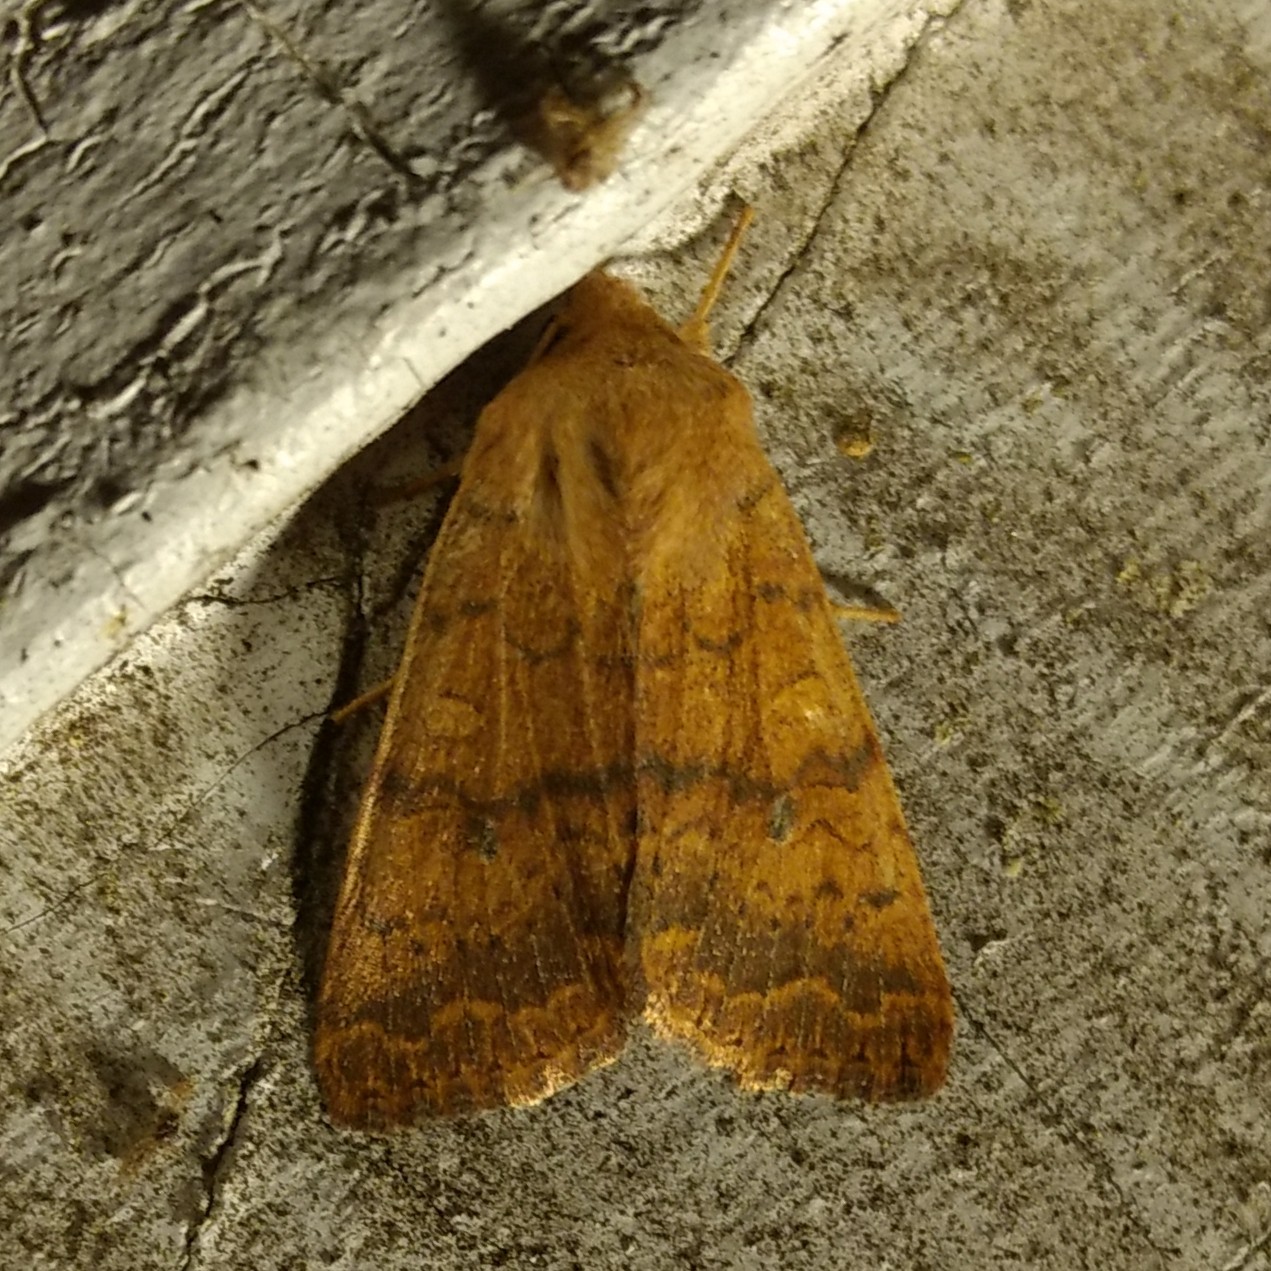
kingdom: Animalia
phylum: Arthropoda
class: Insecta
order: Lepidoptera
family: Noctuidae
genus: Agrochola
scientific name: Agrochola bicolorago
